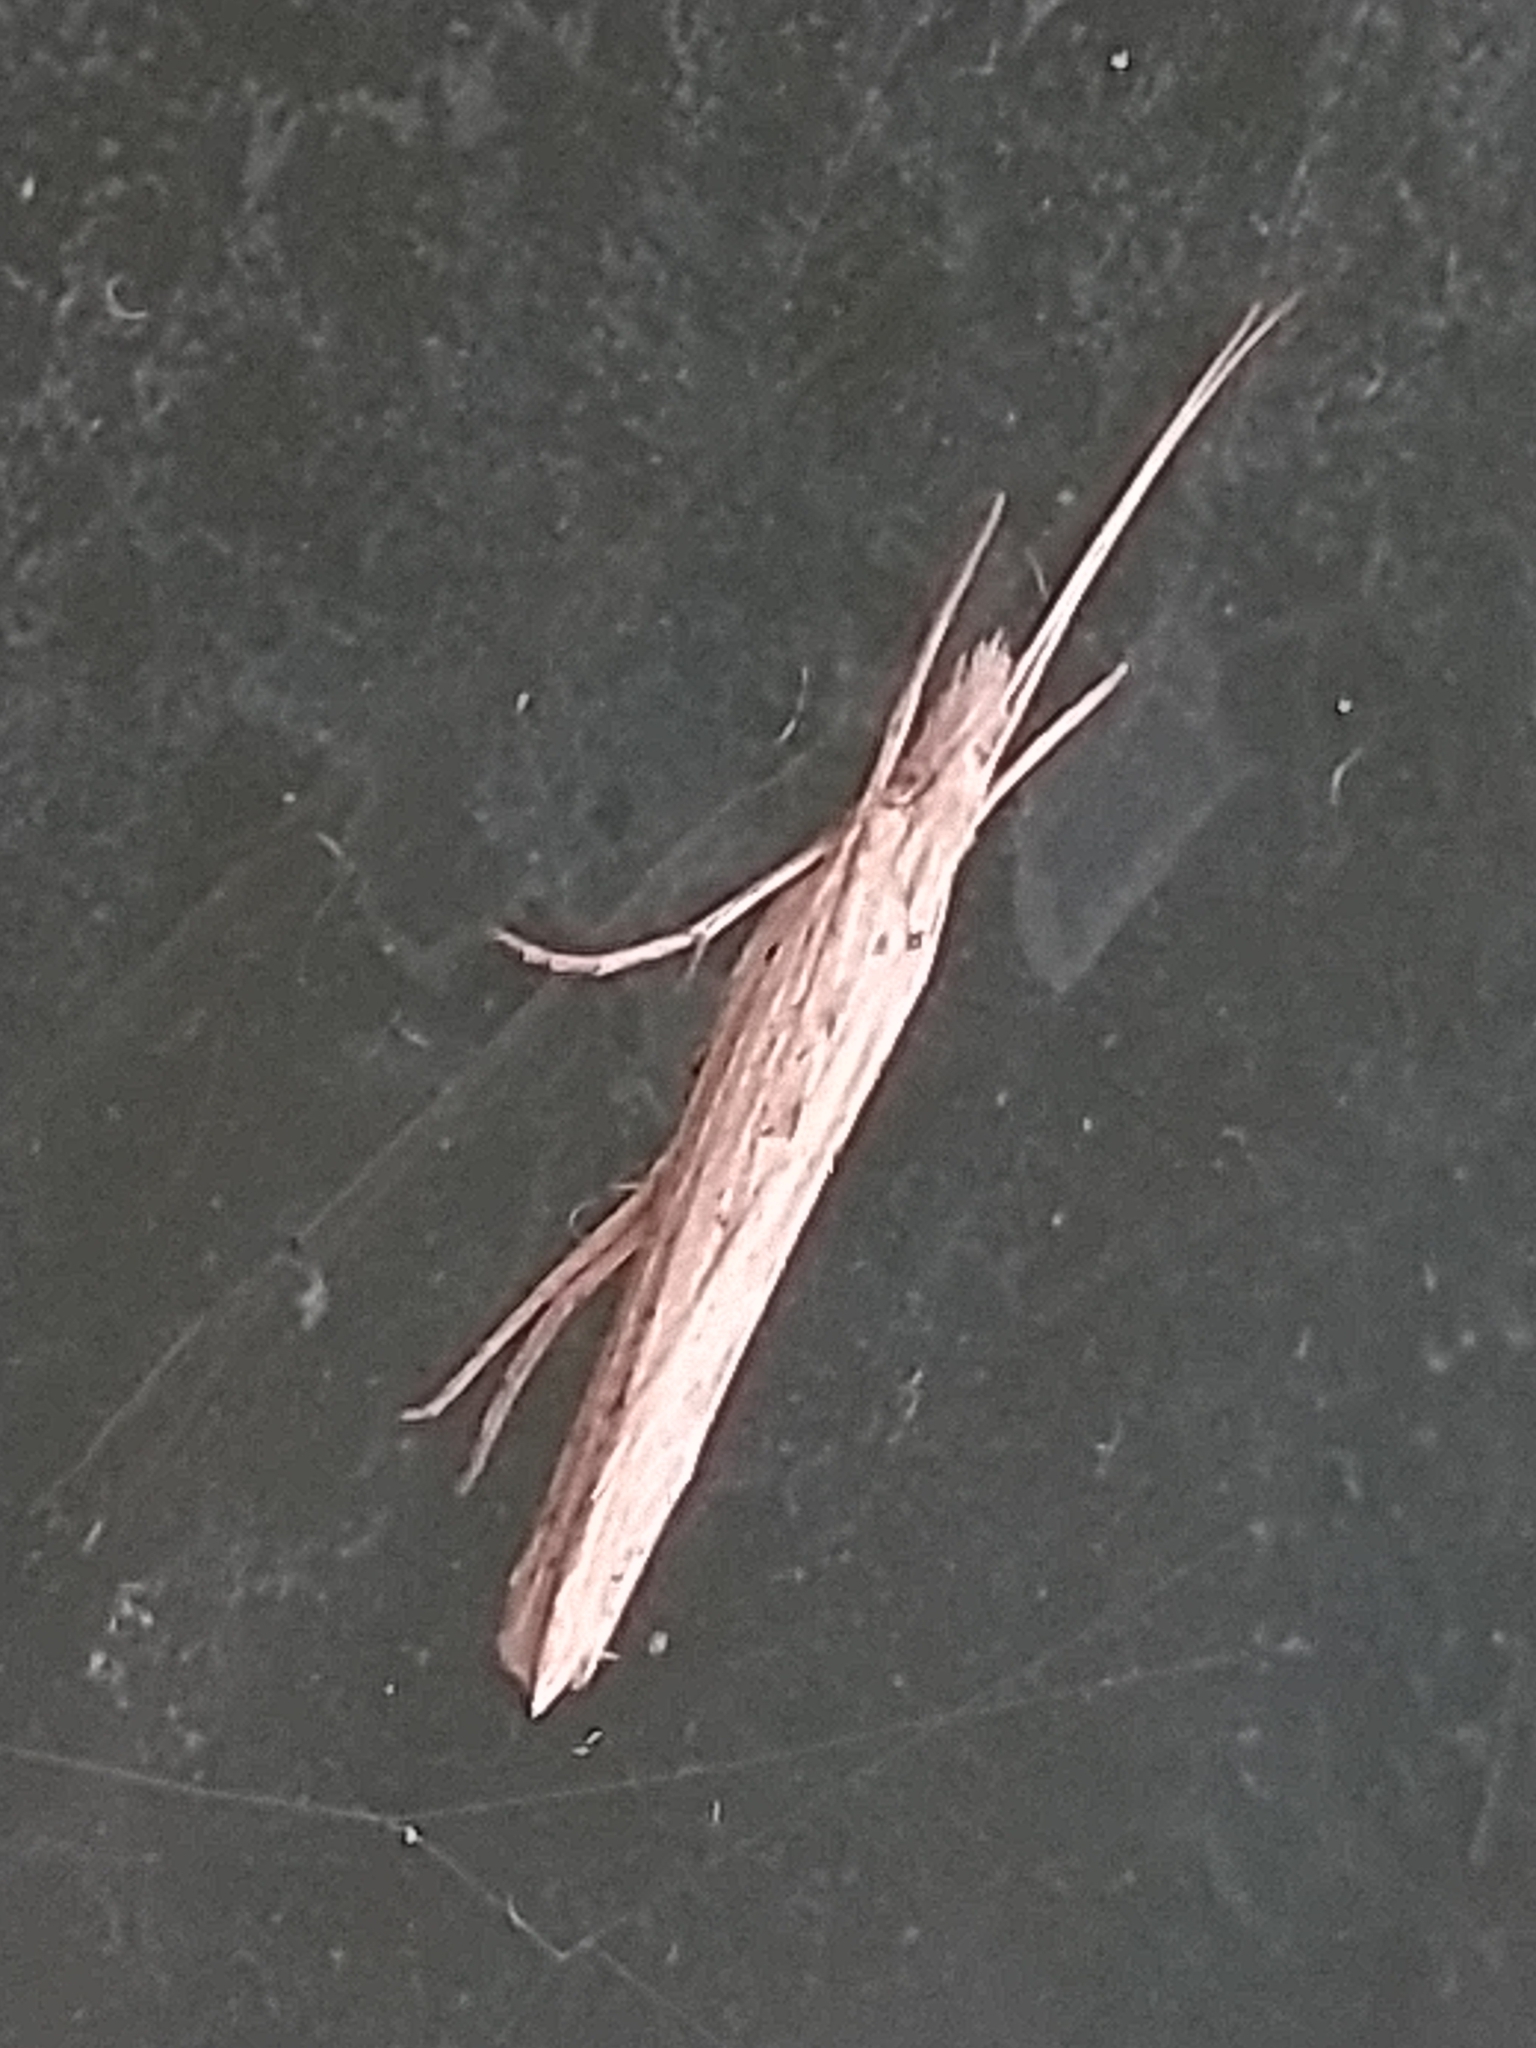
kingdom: Animalia
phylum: Arthropoda
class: Insecta
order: Lepidoptera
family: Ypsolophidae
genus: Ypsolopha
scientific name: Ypsolopha mucronella
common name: Spindle smudge
